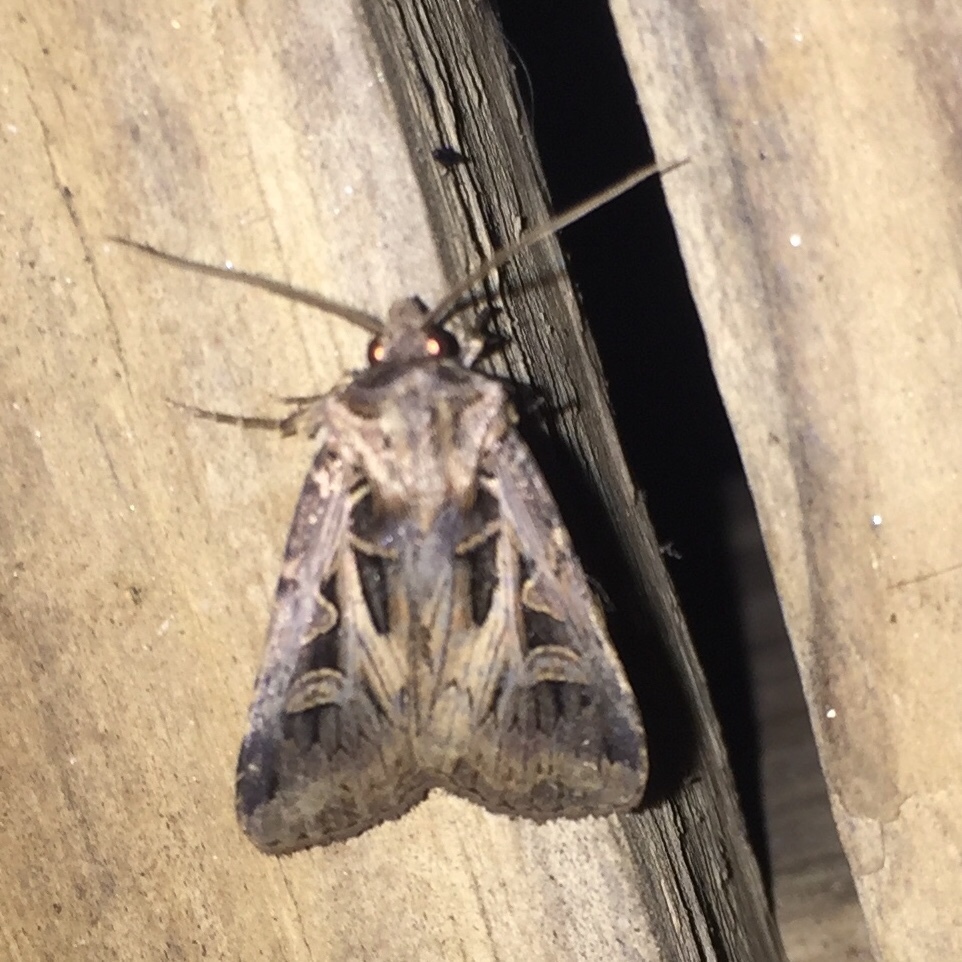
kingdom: Animalia
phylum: Arthropoda
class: Insecta
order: Lepidoptera
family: Noctuidae
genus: Feltia
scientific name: Feltia tricosa
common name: Confused dart moth
